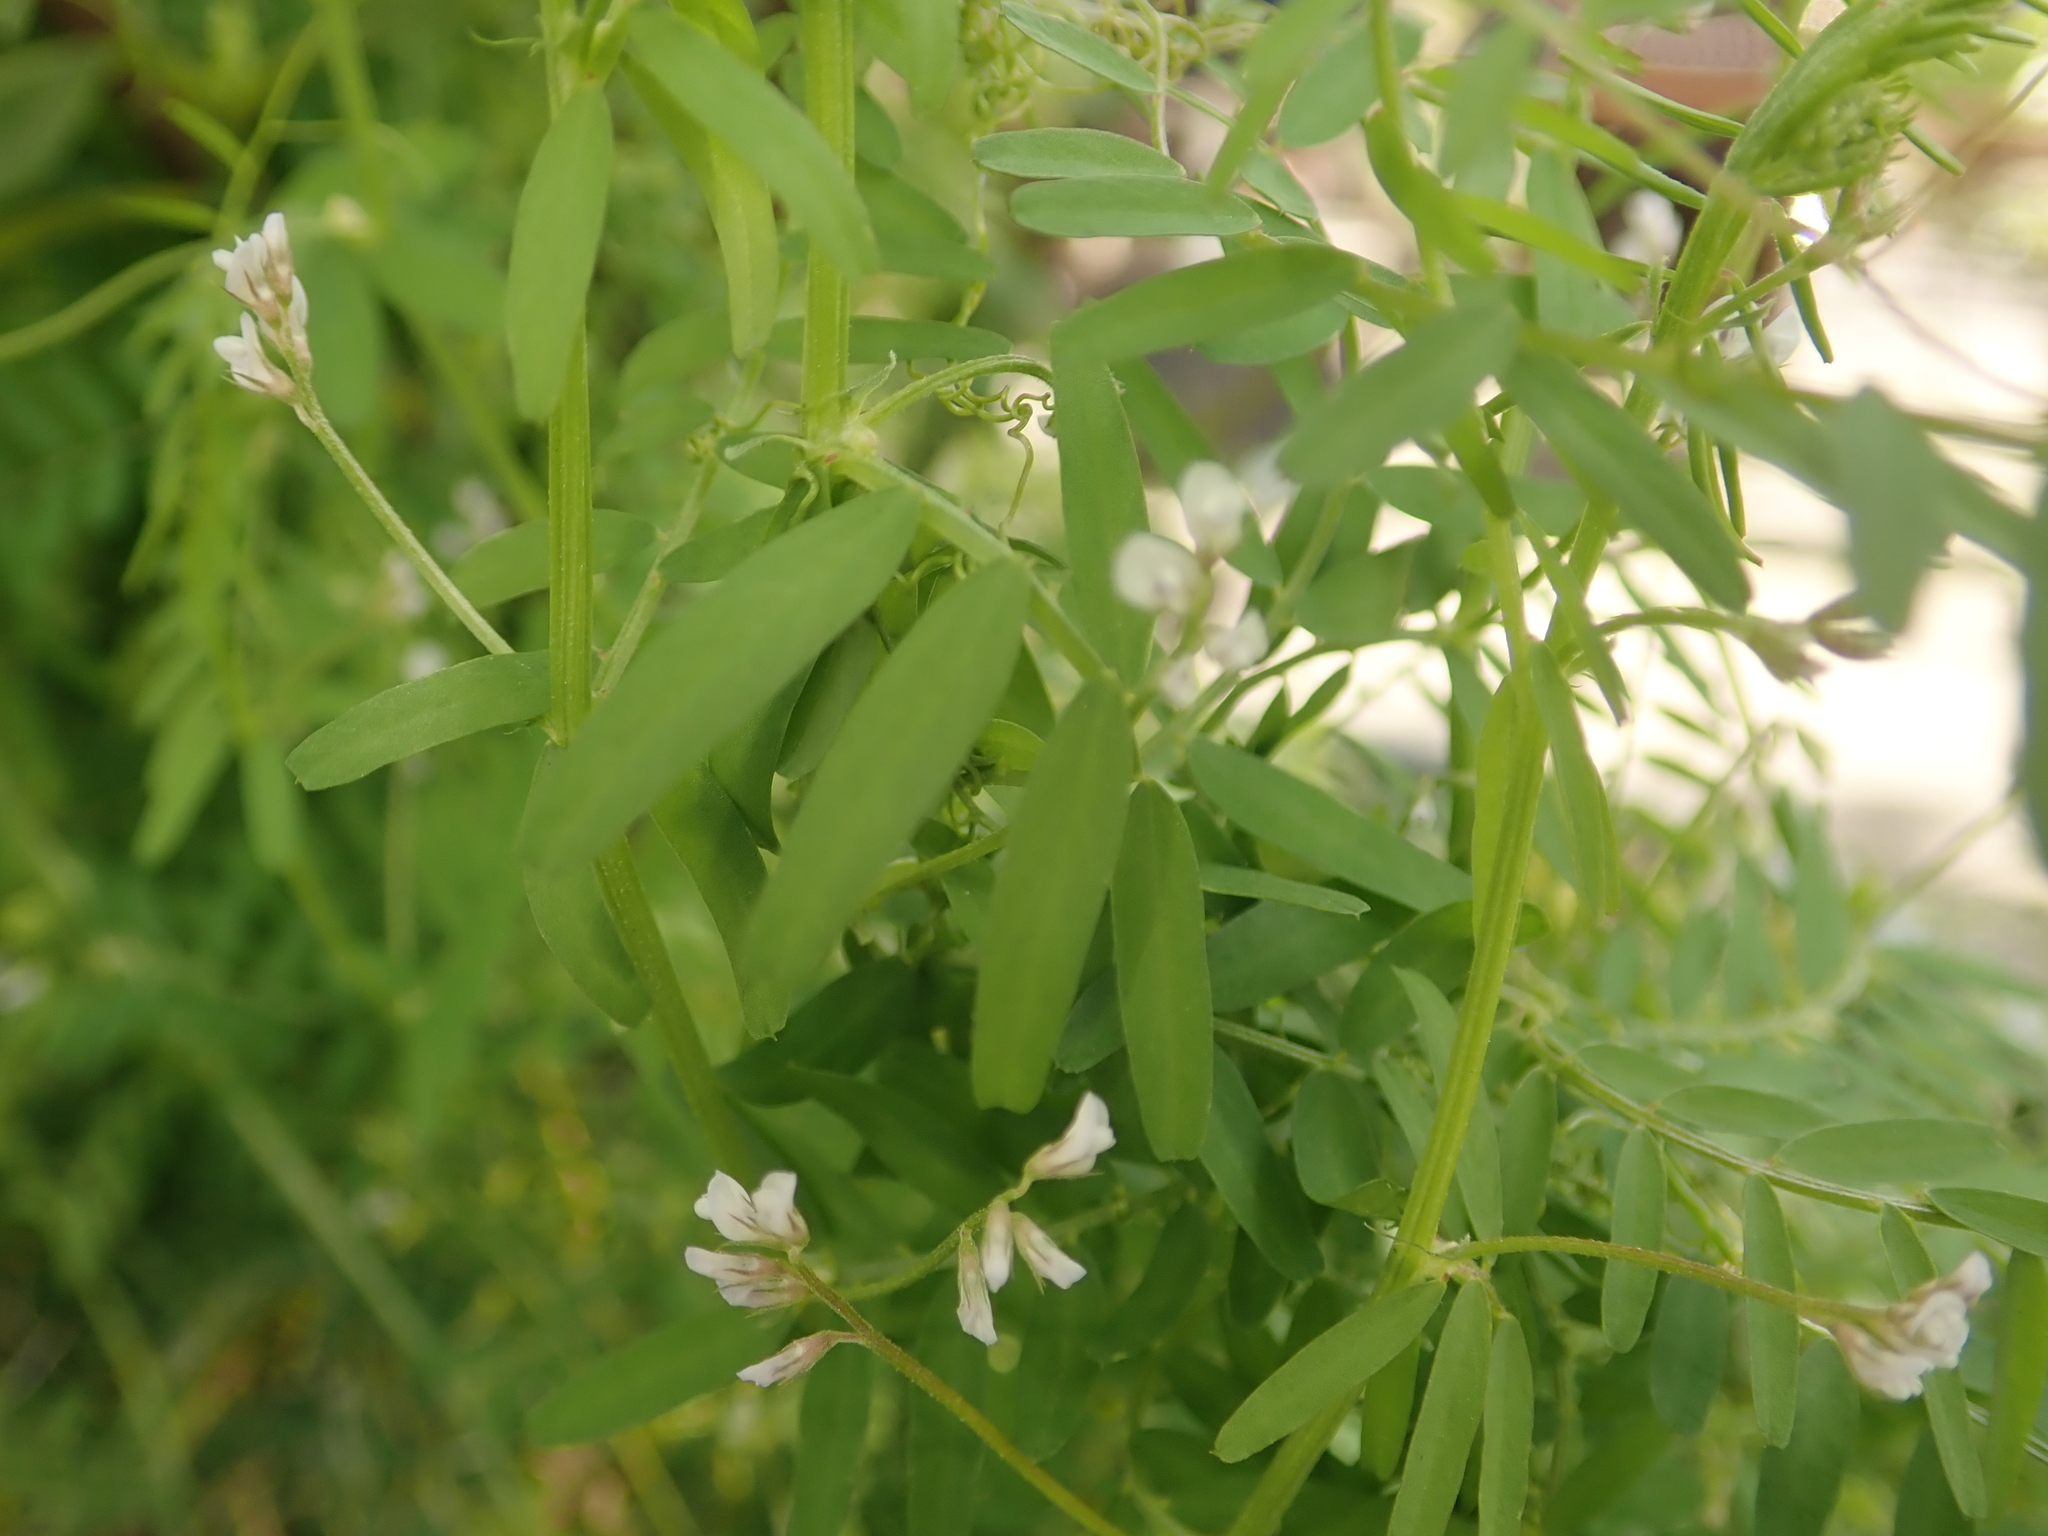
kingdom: Plantae
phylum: Tracheophyta
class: Magnoliopsida
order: Fabales
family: Fabaceae
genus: Vicia
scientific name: Vicia hirsuta
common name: Tiny vetch
